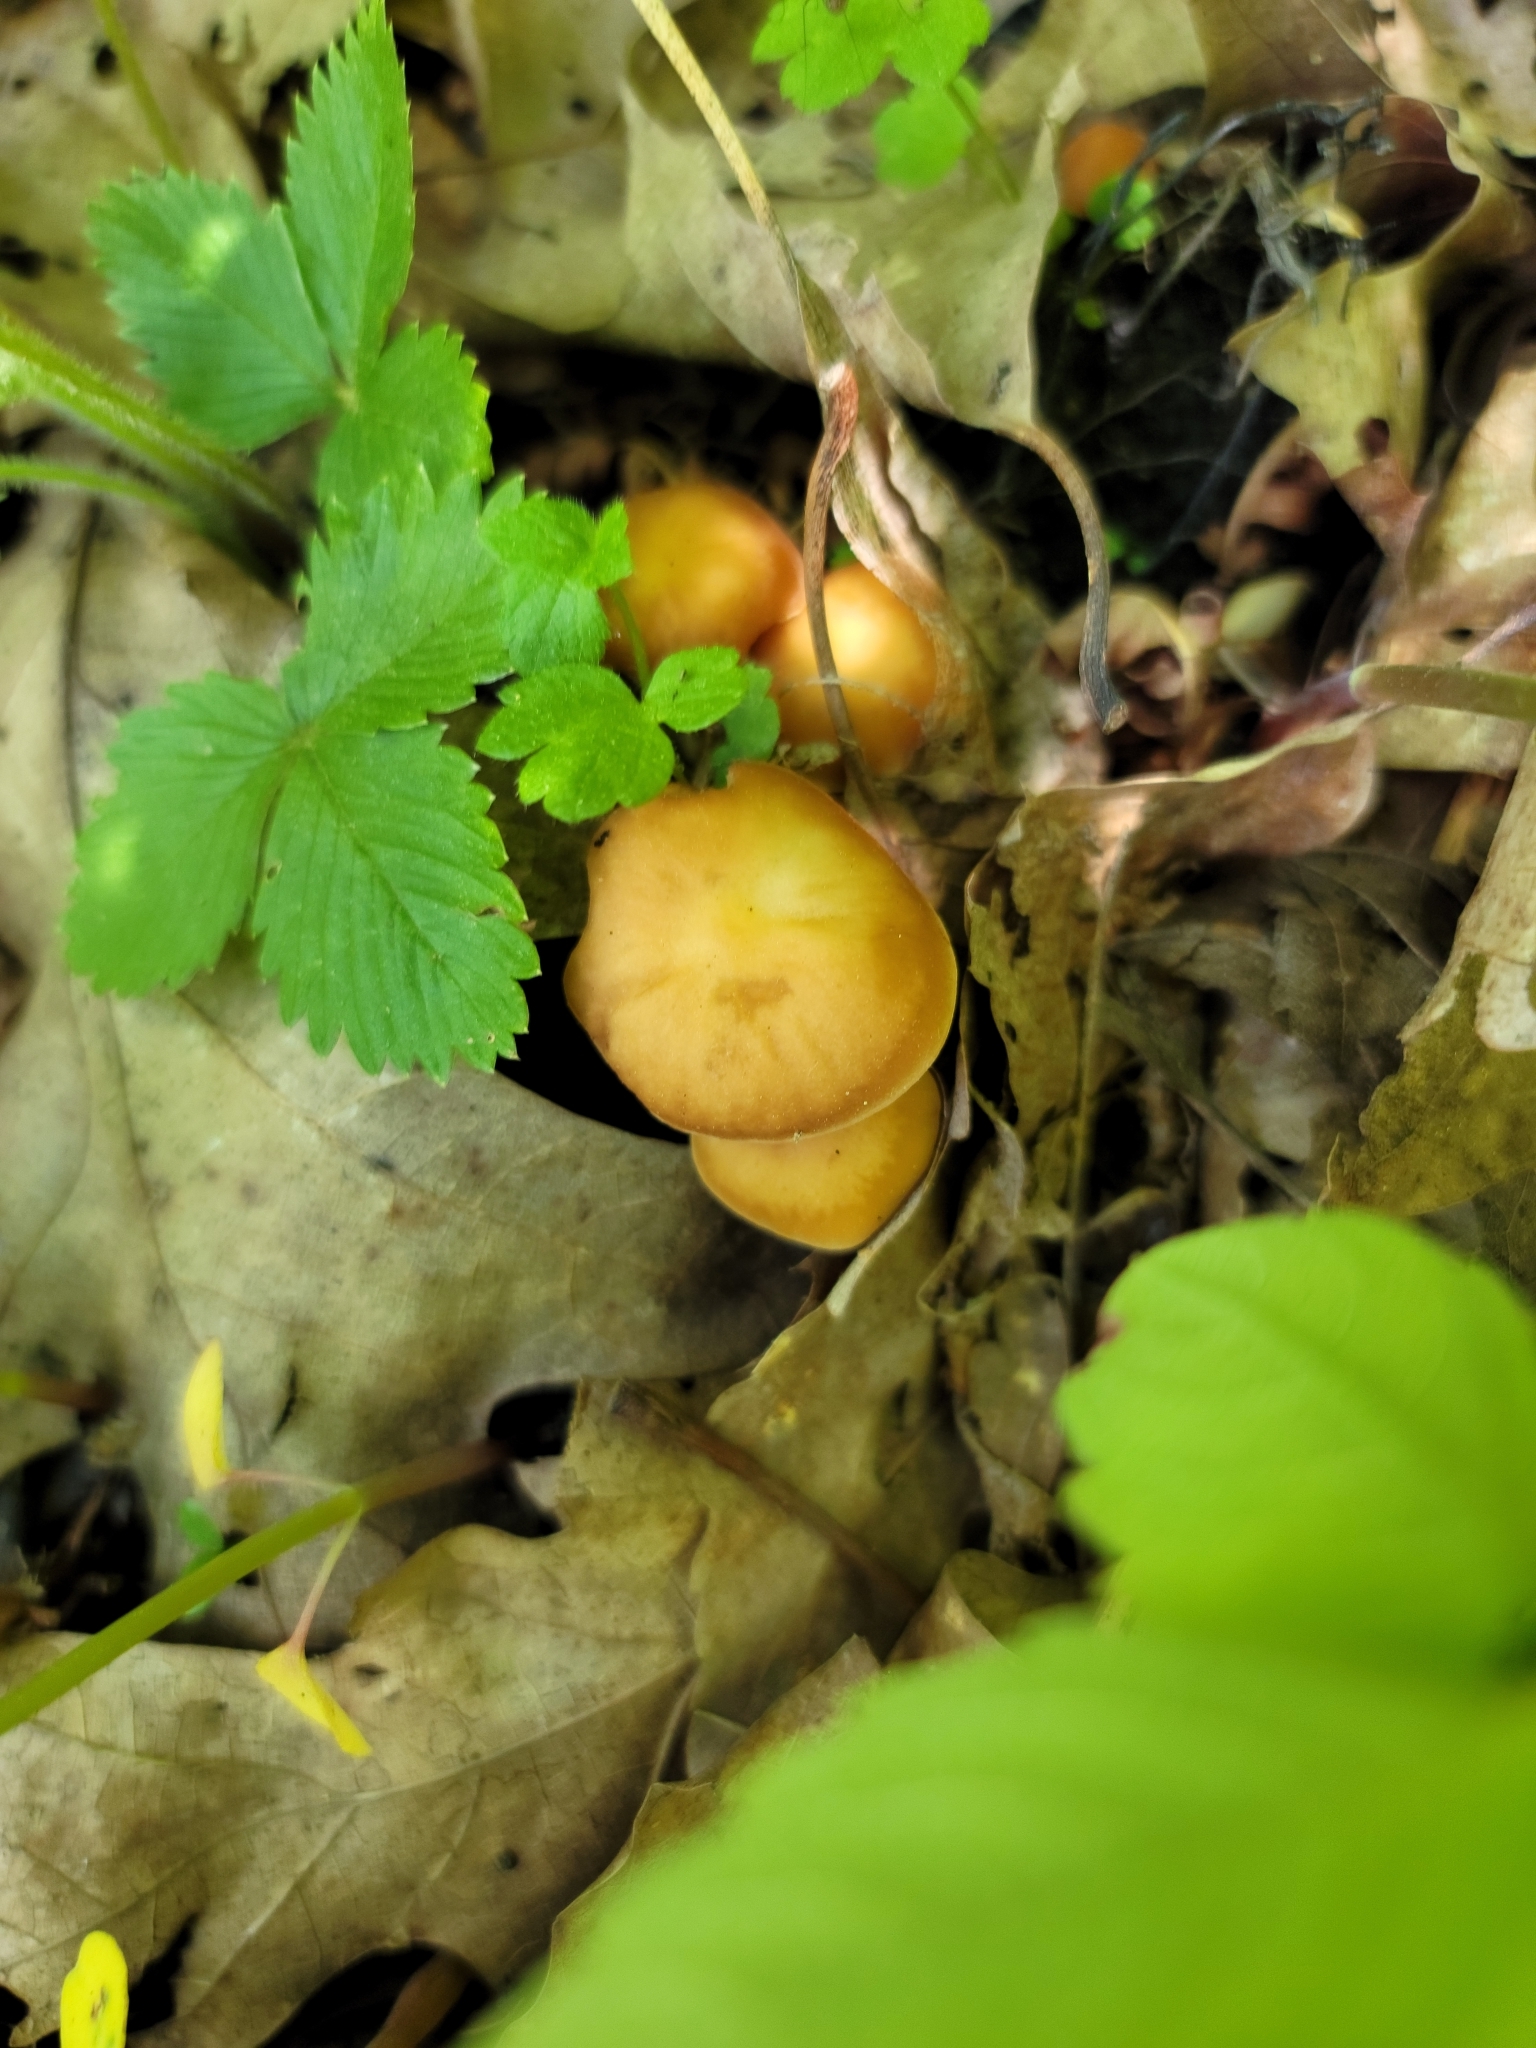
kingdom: Fungi
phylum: Basidiomycota
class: Agaricomycetes
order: Agaricales
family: Omphalotaceae
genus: Gymnopus
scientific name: Gymnopus dryophilus
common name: Penny top
